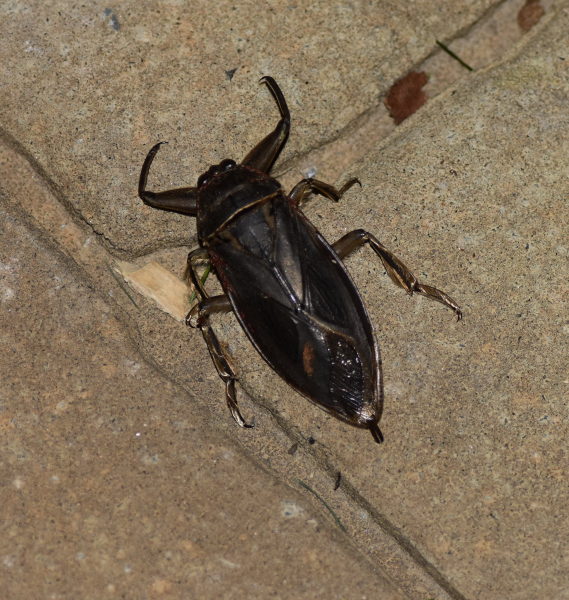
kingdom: Animalia
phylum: Arthropoda
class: Insecta
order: Hemiptera
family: Belostomatidae
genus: Lethocerus
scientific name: Lethocerus americanus
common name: Giant water bug
